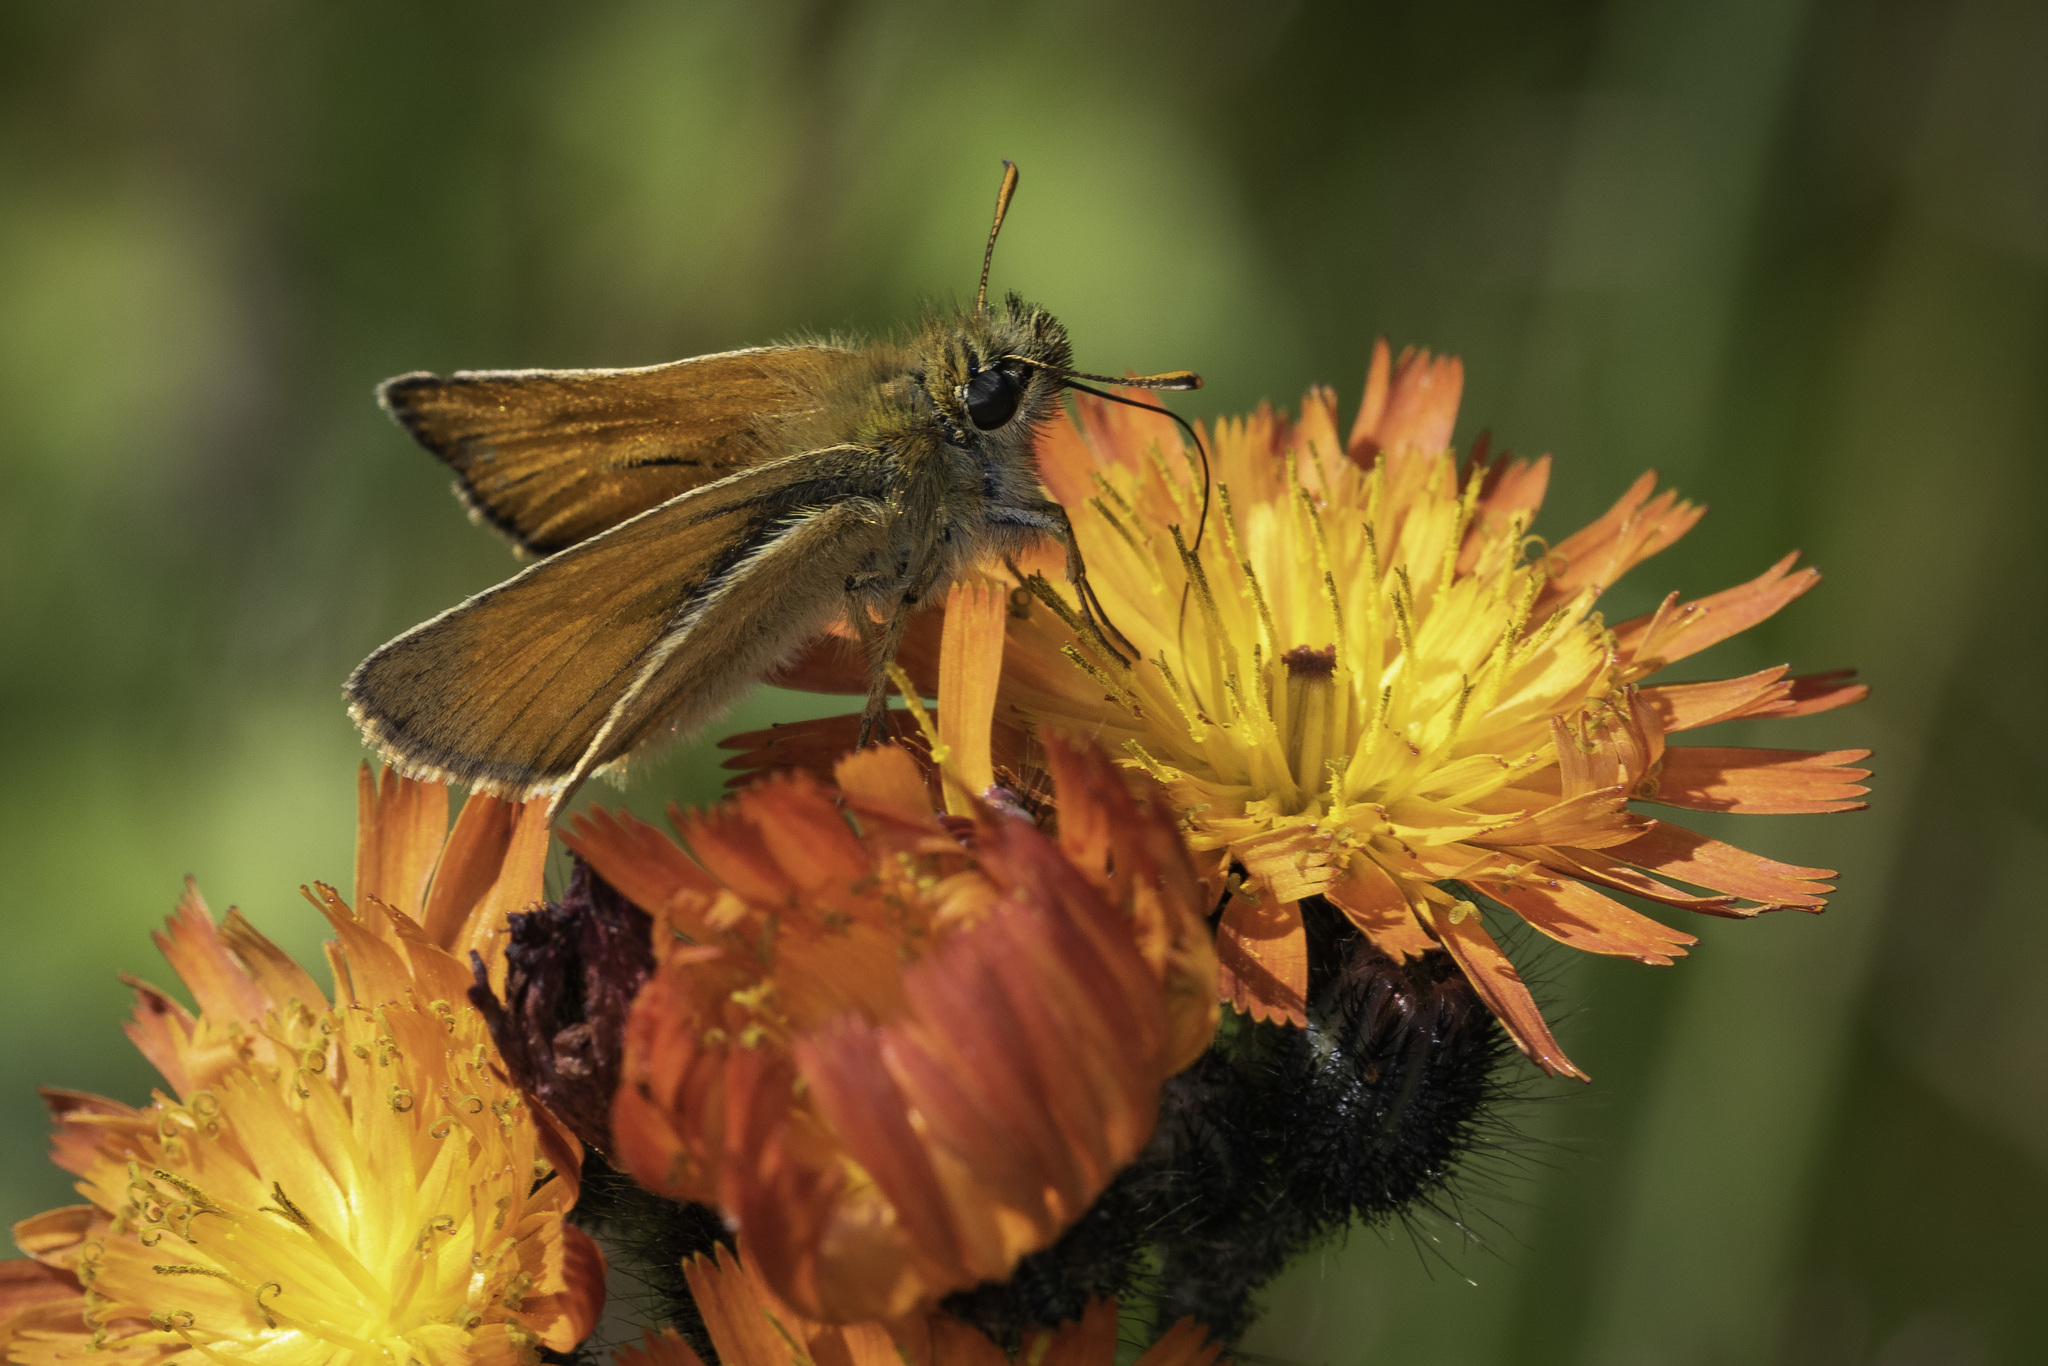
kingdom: Animalia
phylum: Arthropoda
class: Insecta
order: Lepidoptera
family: Hesperiidae
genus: Thymelicus
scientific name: Thymelicus sylvestris
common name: Small skipper
